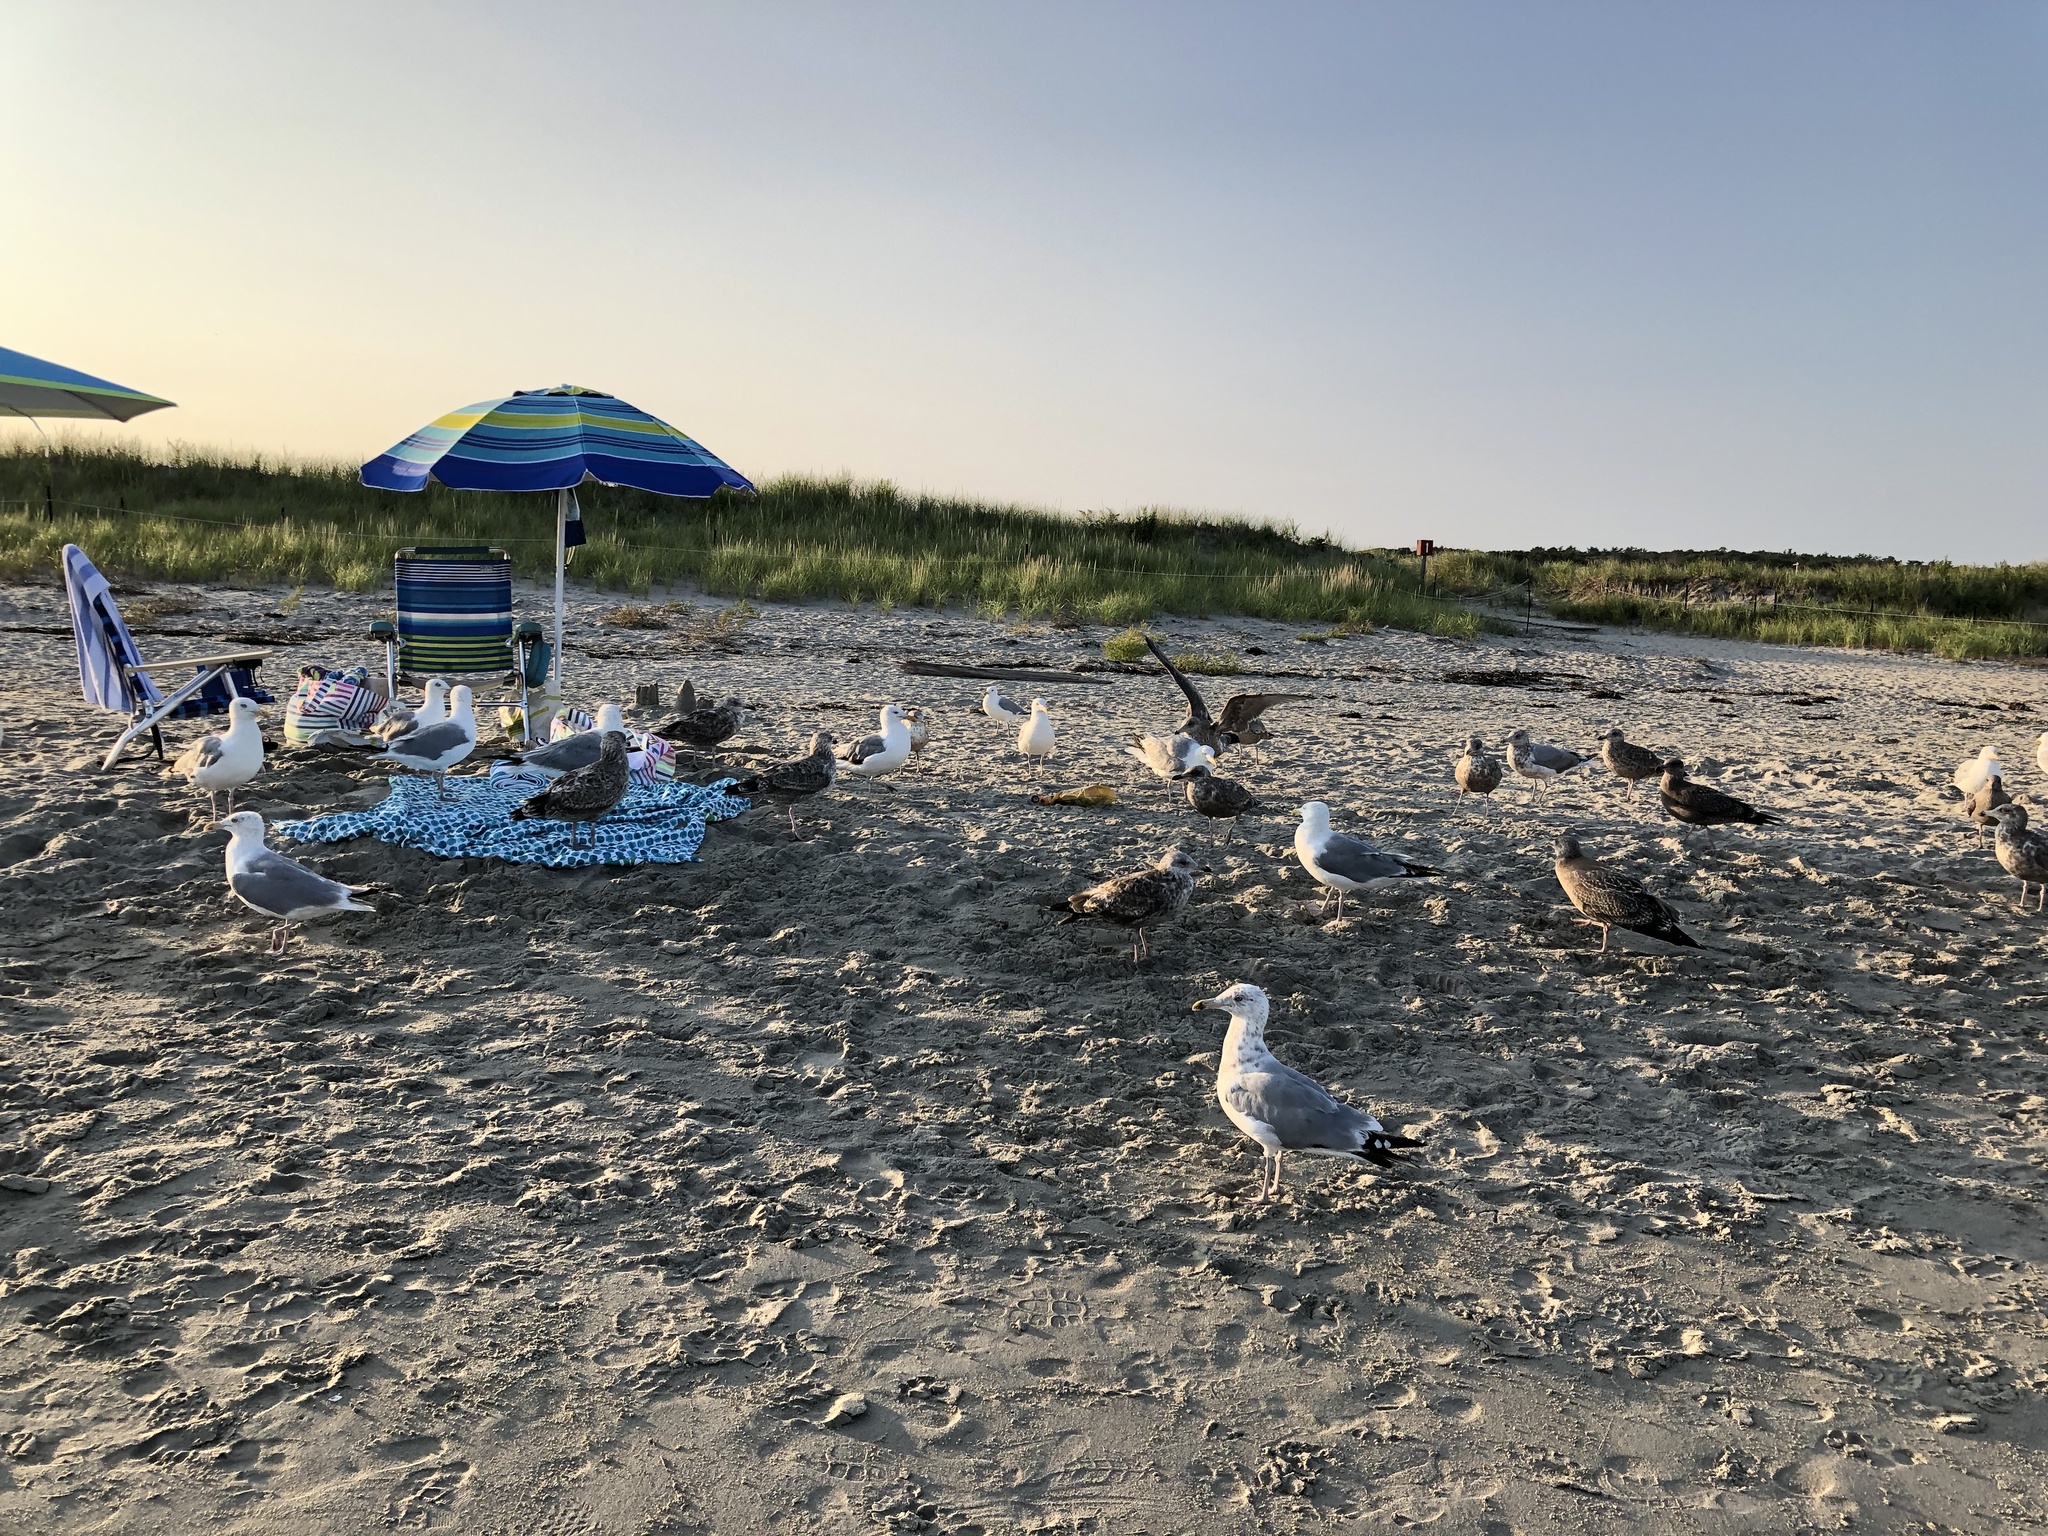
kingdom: Animalia
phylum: Chordata
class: Aves
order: Charadriiformes
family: Laridae
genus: Larus
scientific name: Larus argentatus
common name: Herring gull
